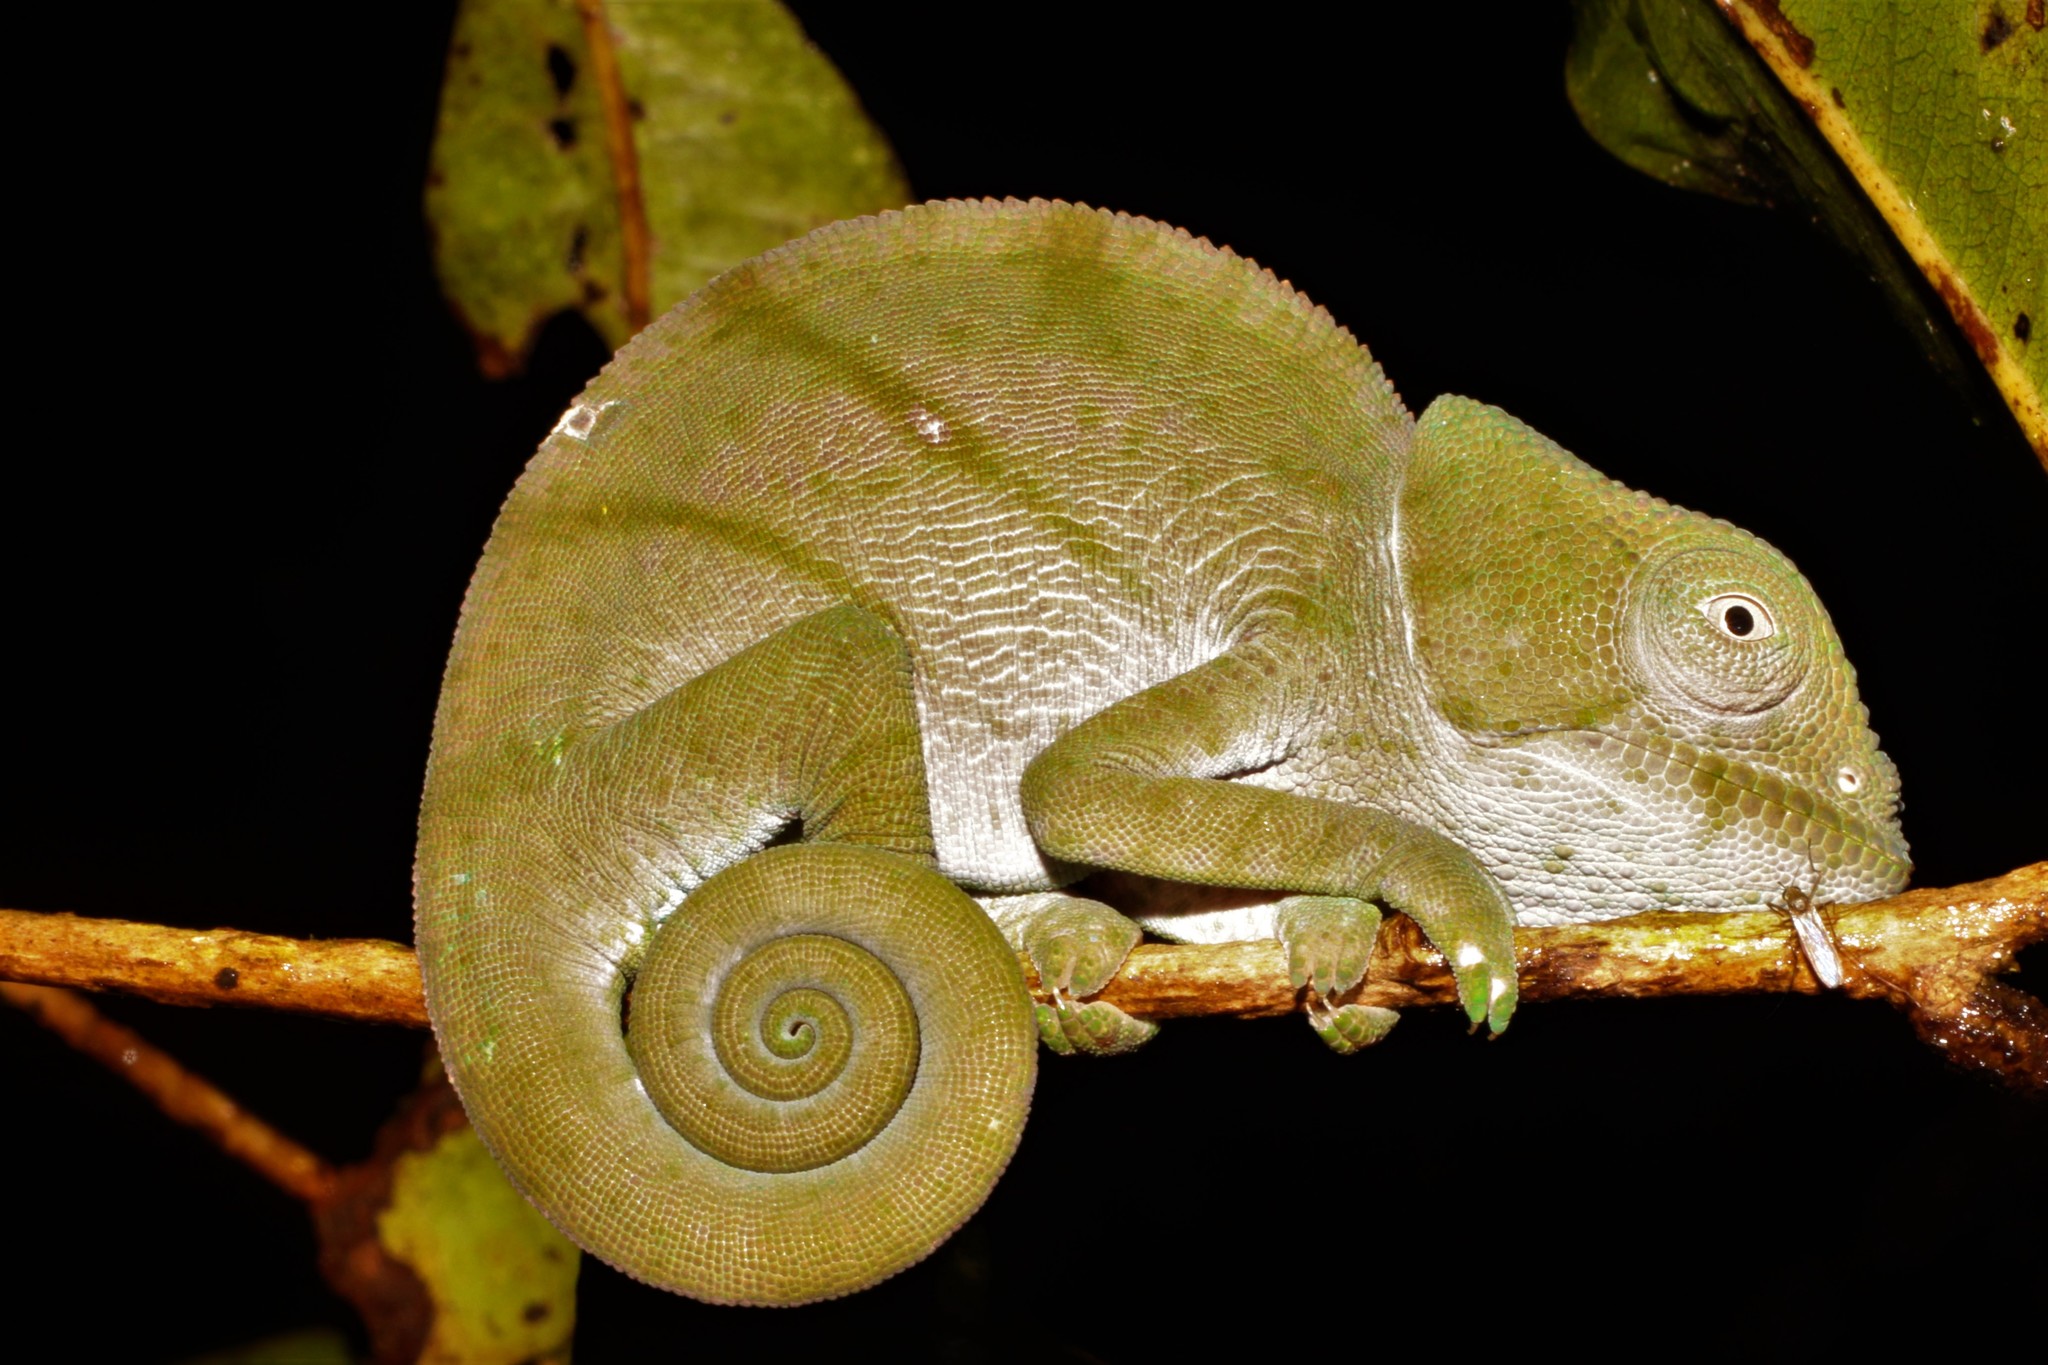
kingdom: Animalia
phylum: Chordata
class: Squamata
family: Chamaeleonidae
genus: Calumma
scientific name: Calumma parsonii
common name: Parson's chameleon
